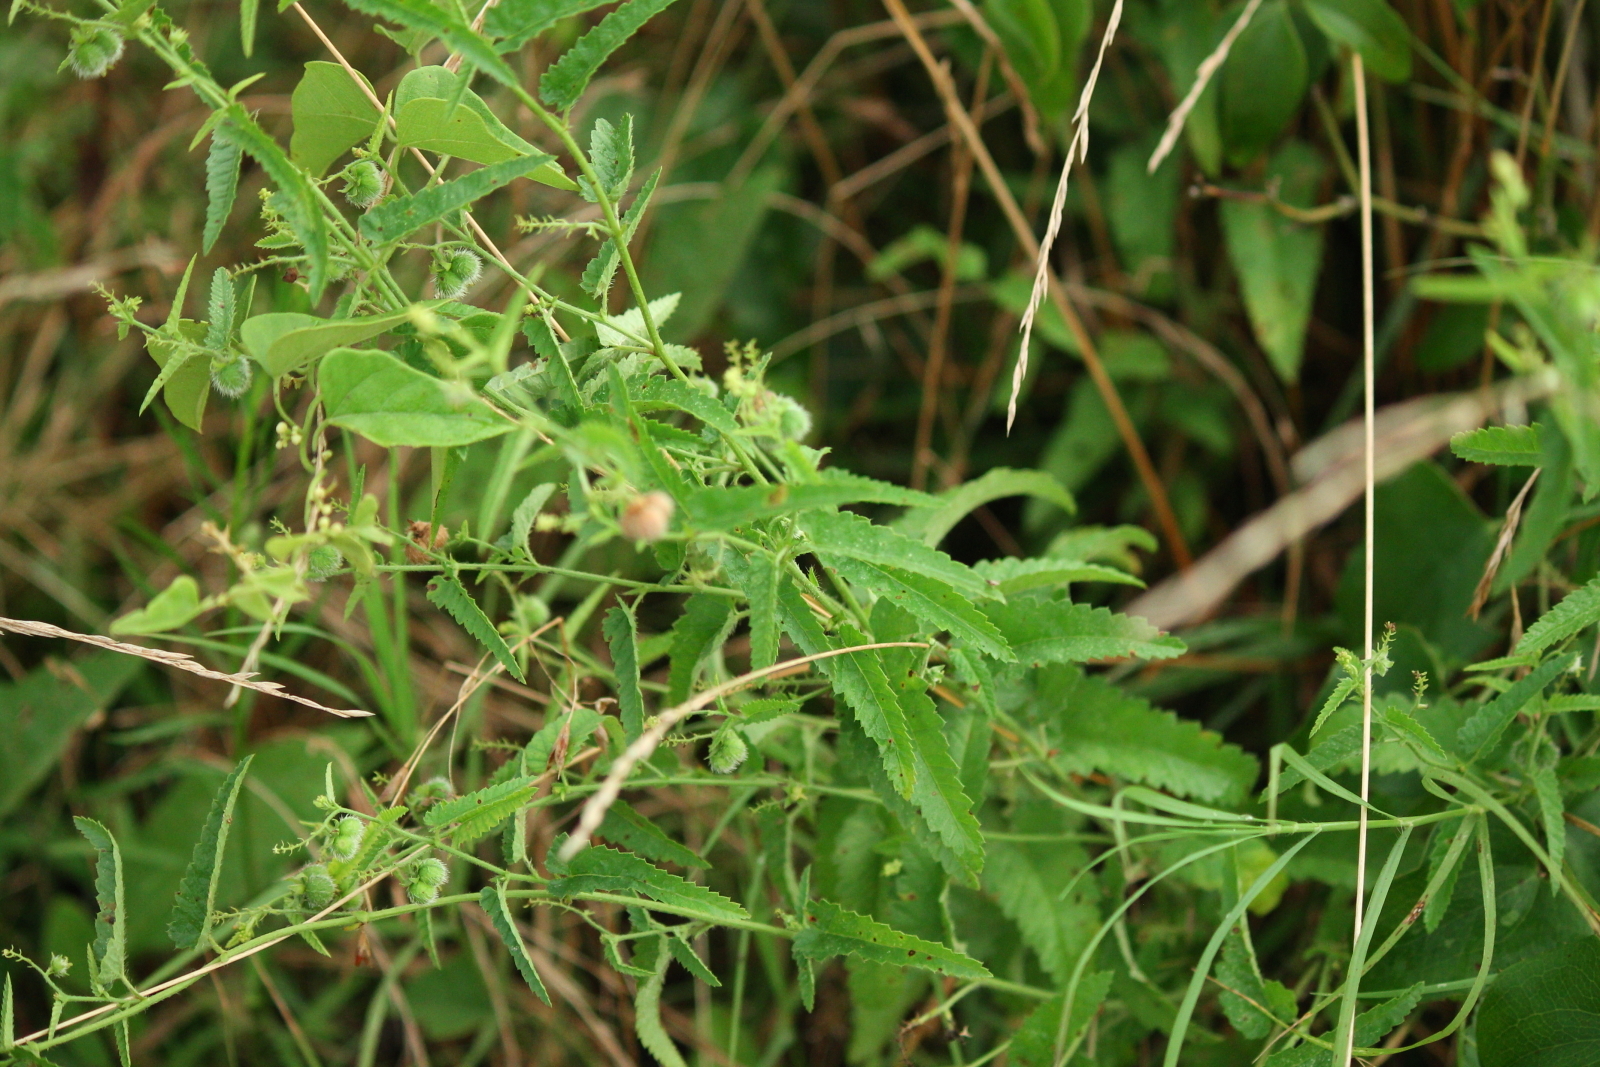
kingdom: Plantae
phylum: Tracheophyta
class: Magnoliopsida
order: Malpighiales
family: Euphorbiaceae
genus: Tragia
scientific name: Tragia urticifolia
